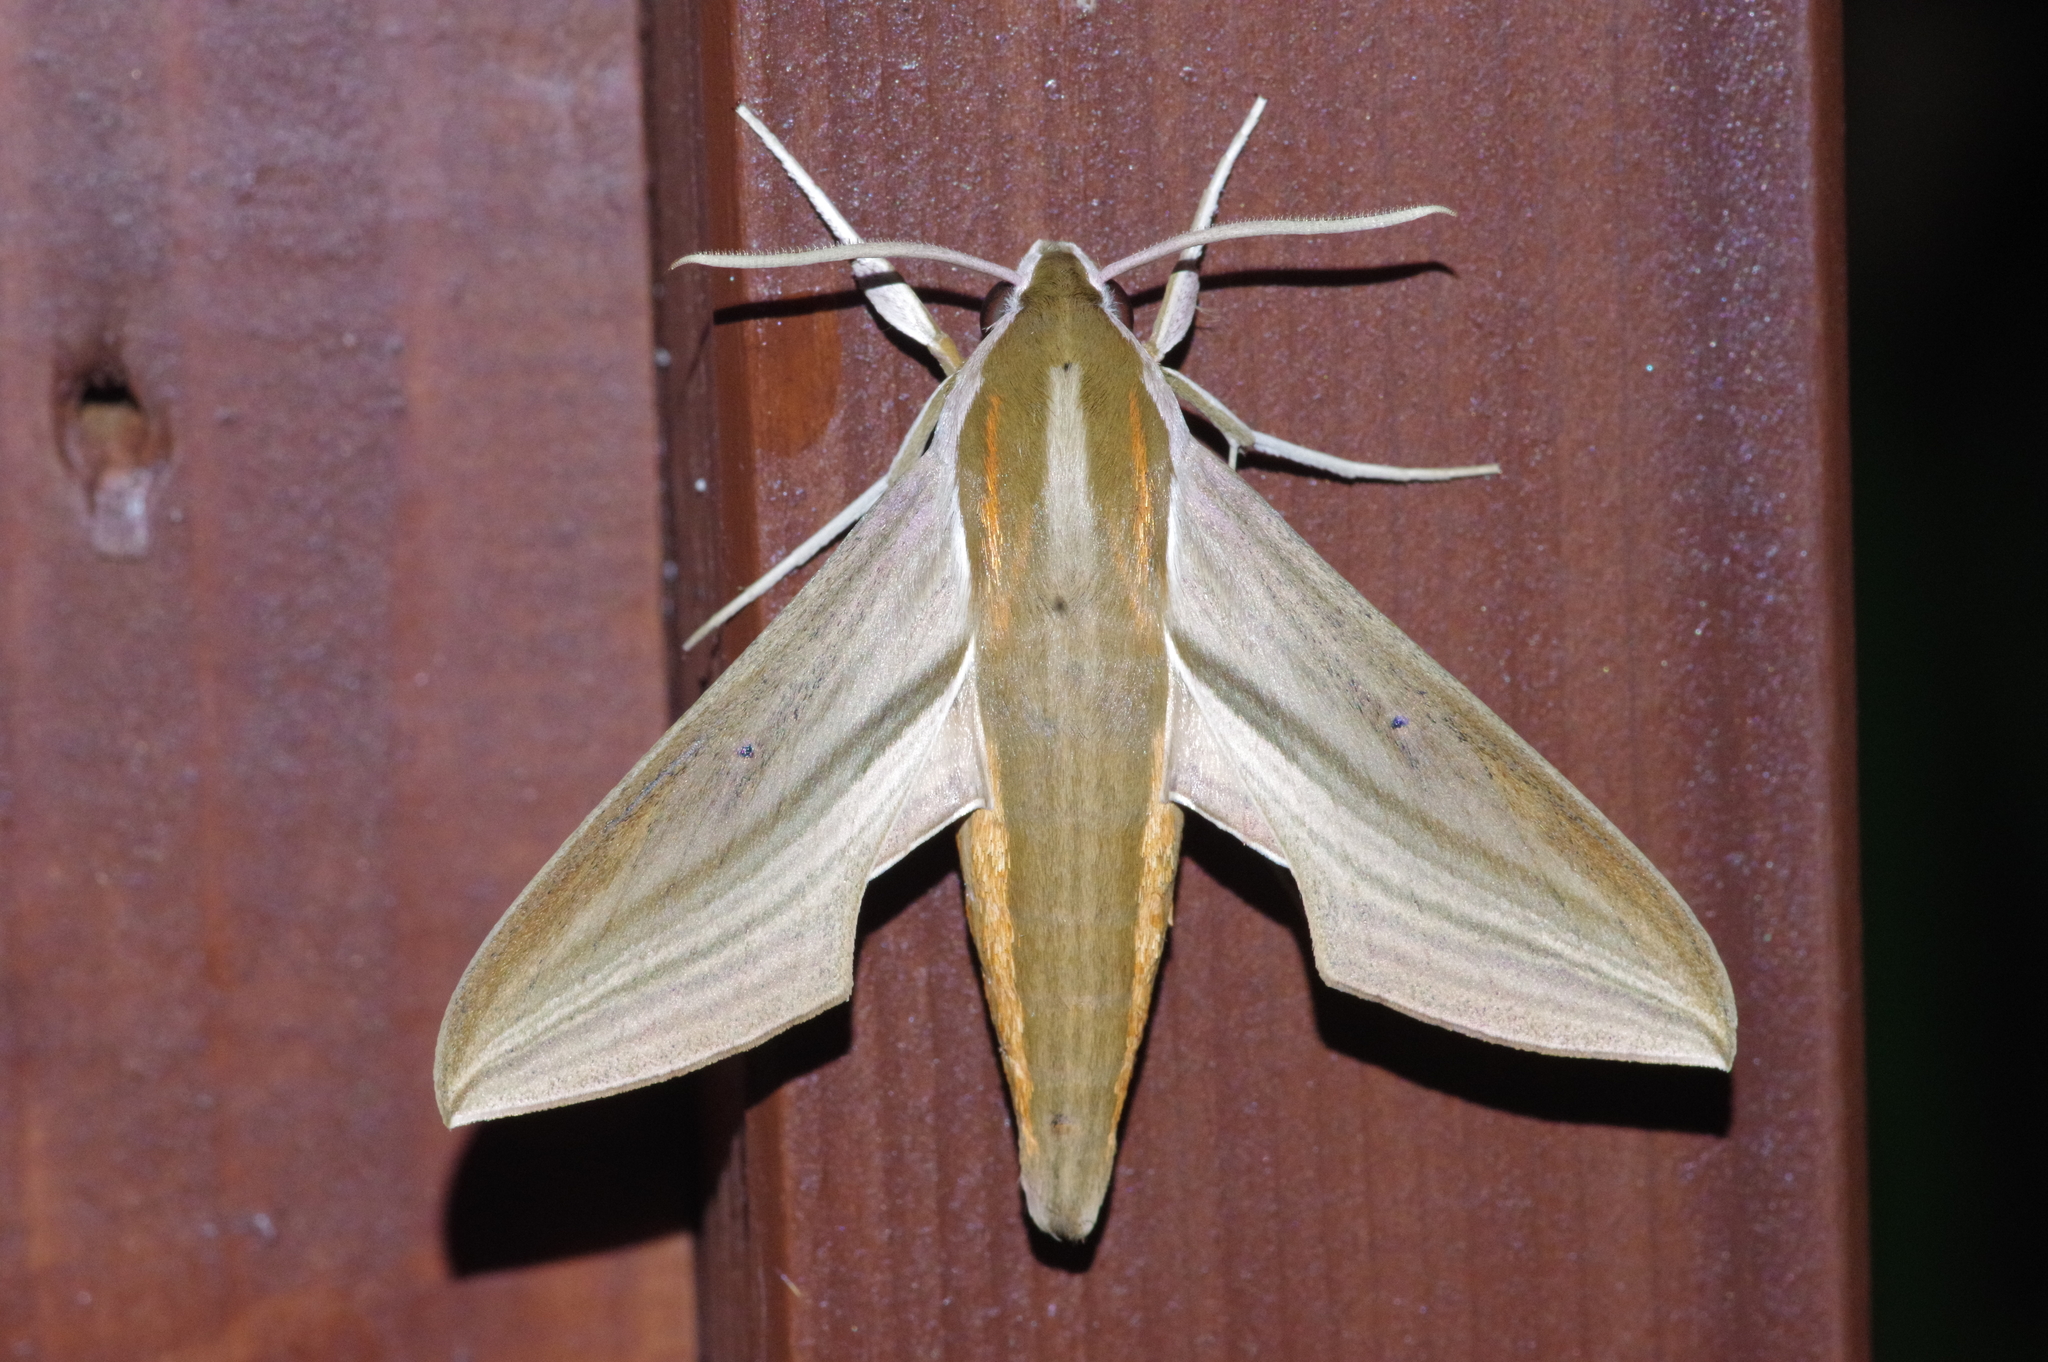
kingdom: Animalia
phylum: Arthropoda
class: Insecta
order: Lepidoptera
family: Sphingidae
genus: Theretra
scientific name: Theretra japonica
